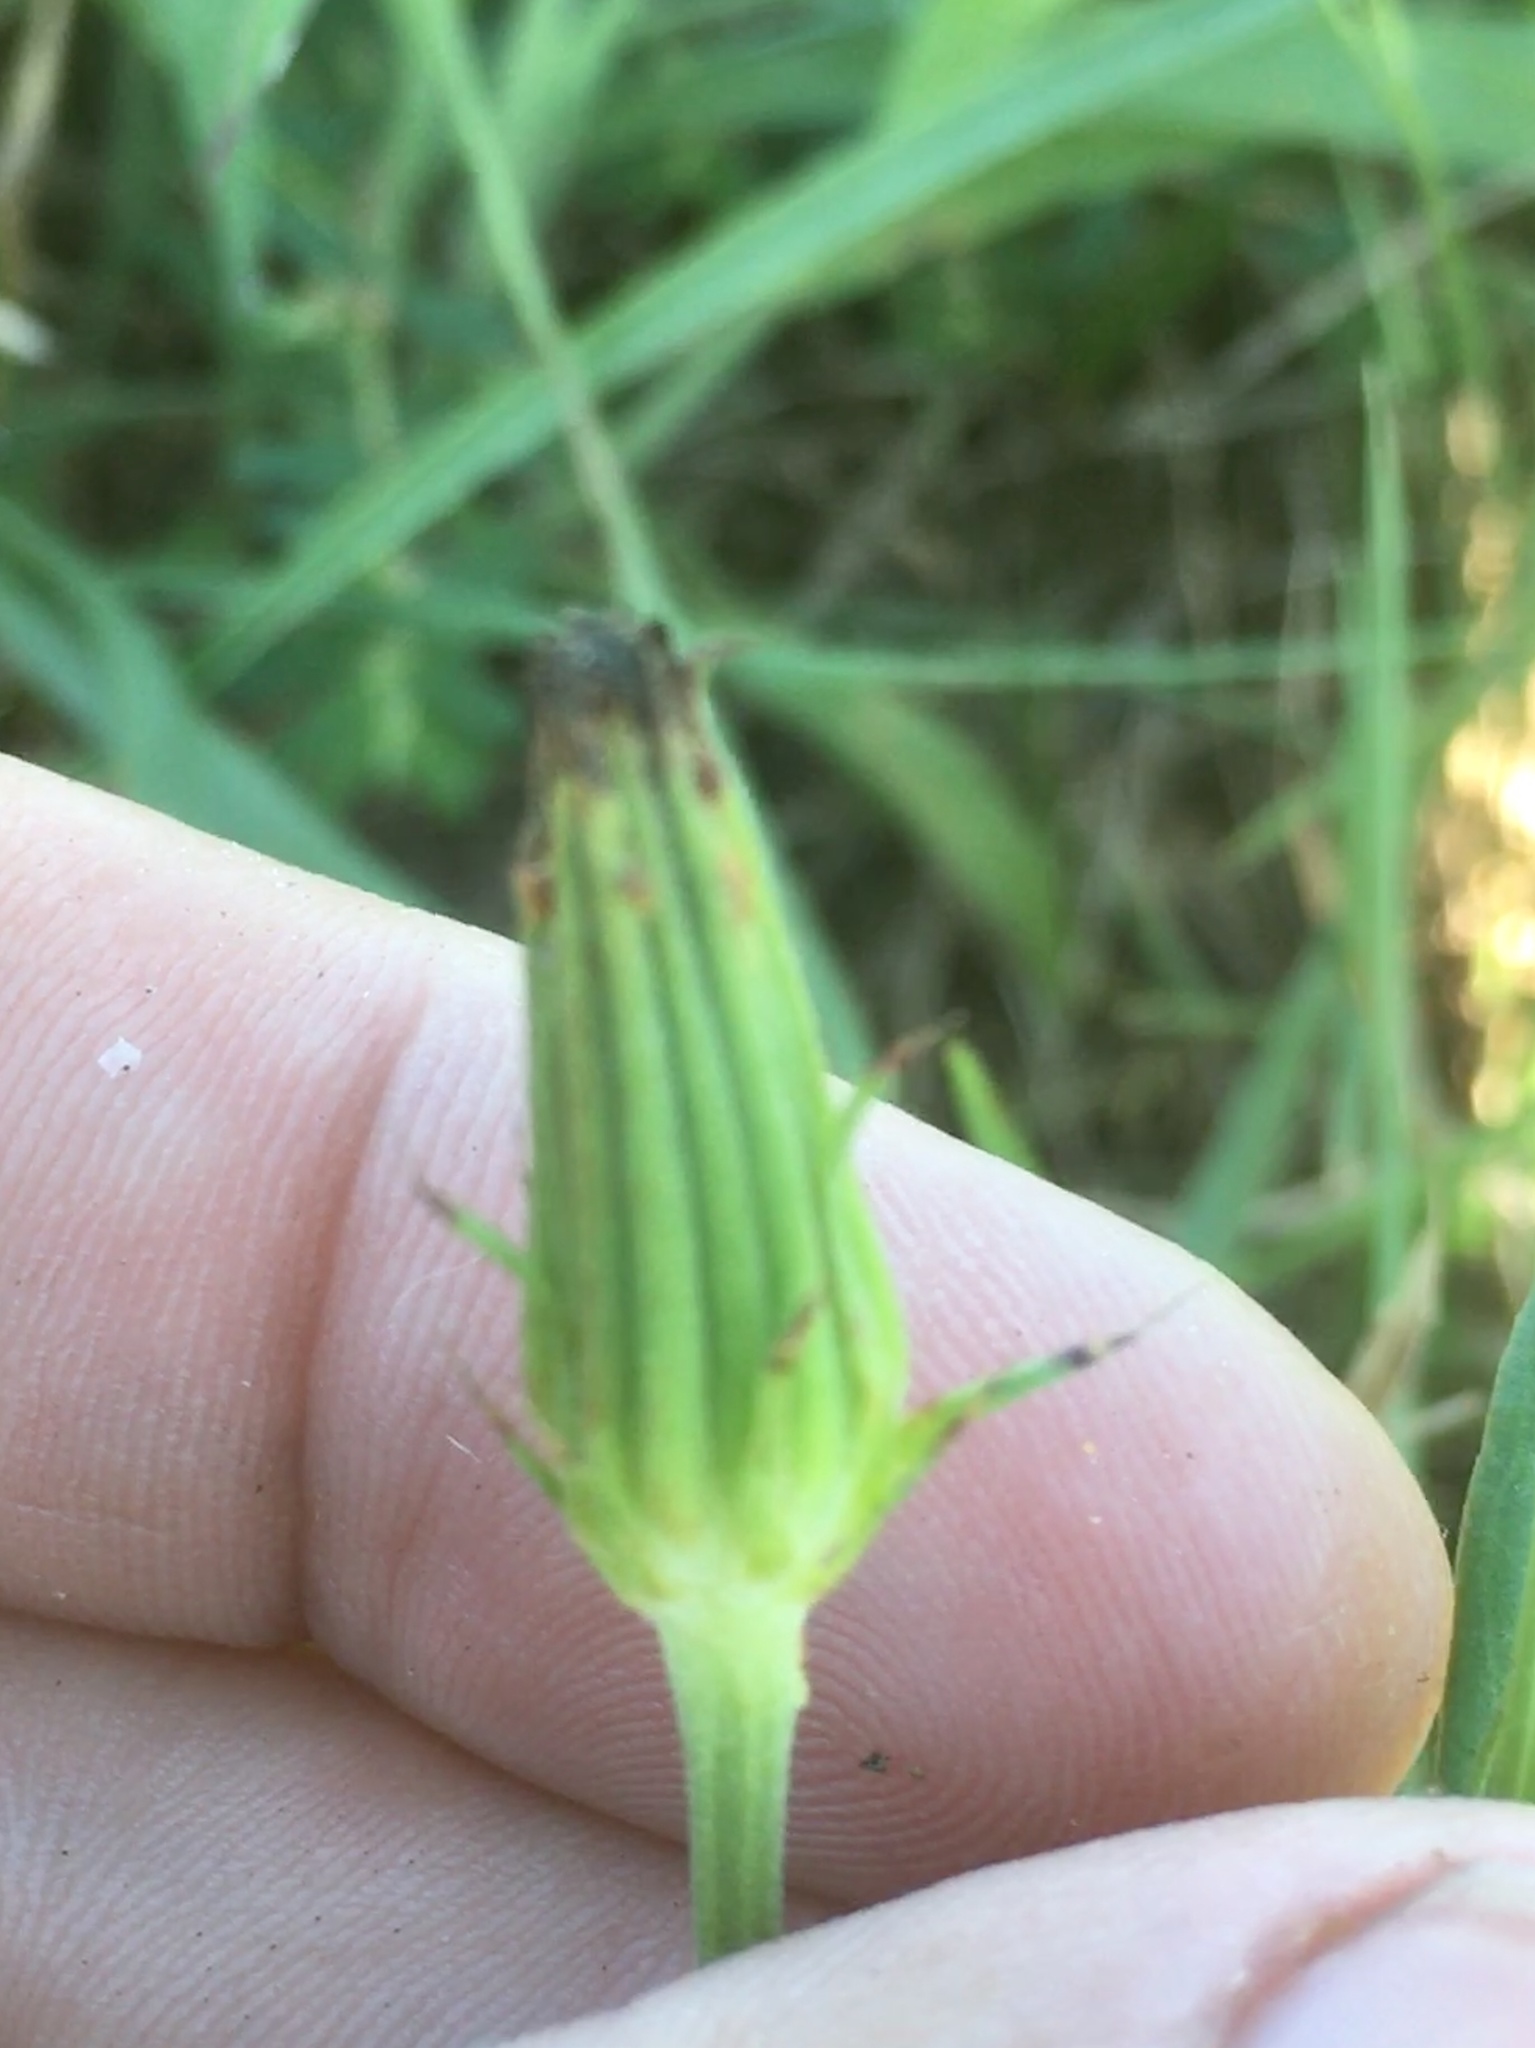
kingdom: Plantae
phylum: Tracheophyta
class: Magnoliopsida
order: Asterales
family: Asteraceae
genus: Pyrrhopappus
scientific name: Pyrrhopappus carolinianus
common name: Carolina desert-chicory
